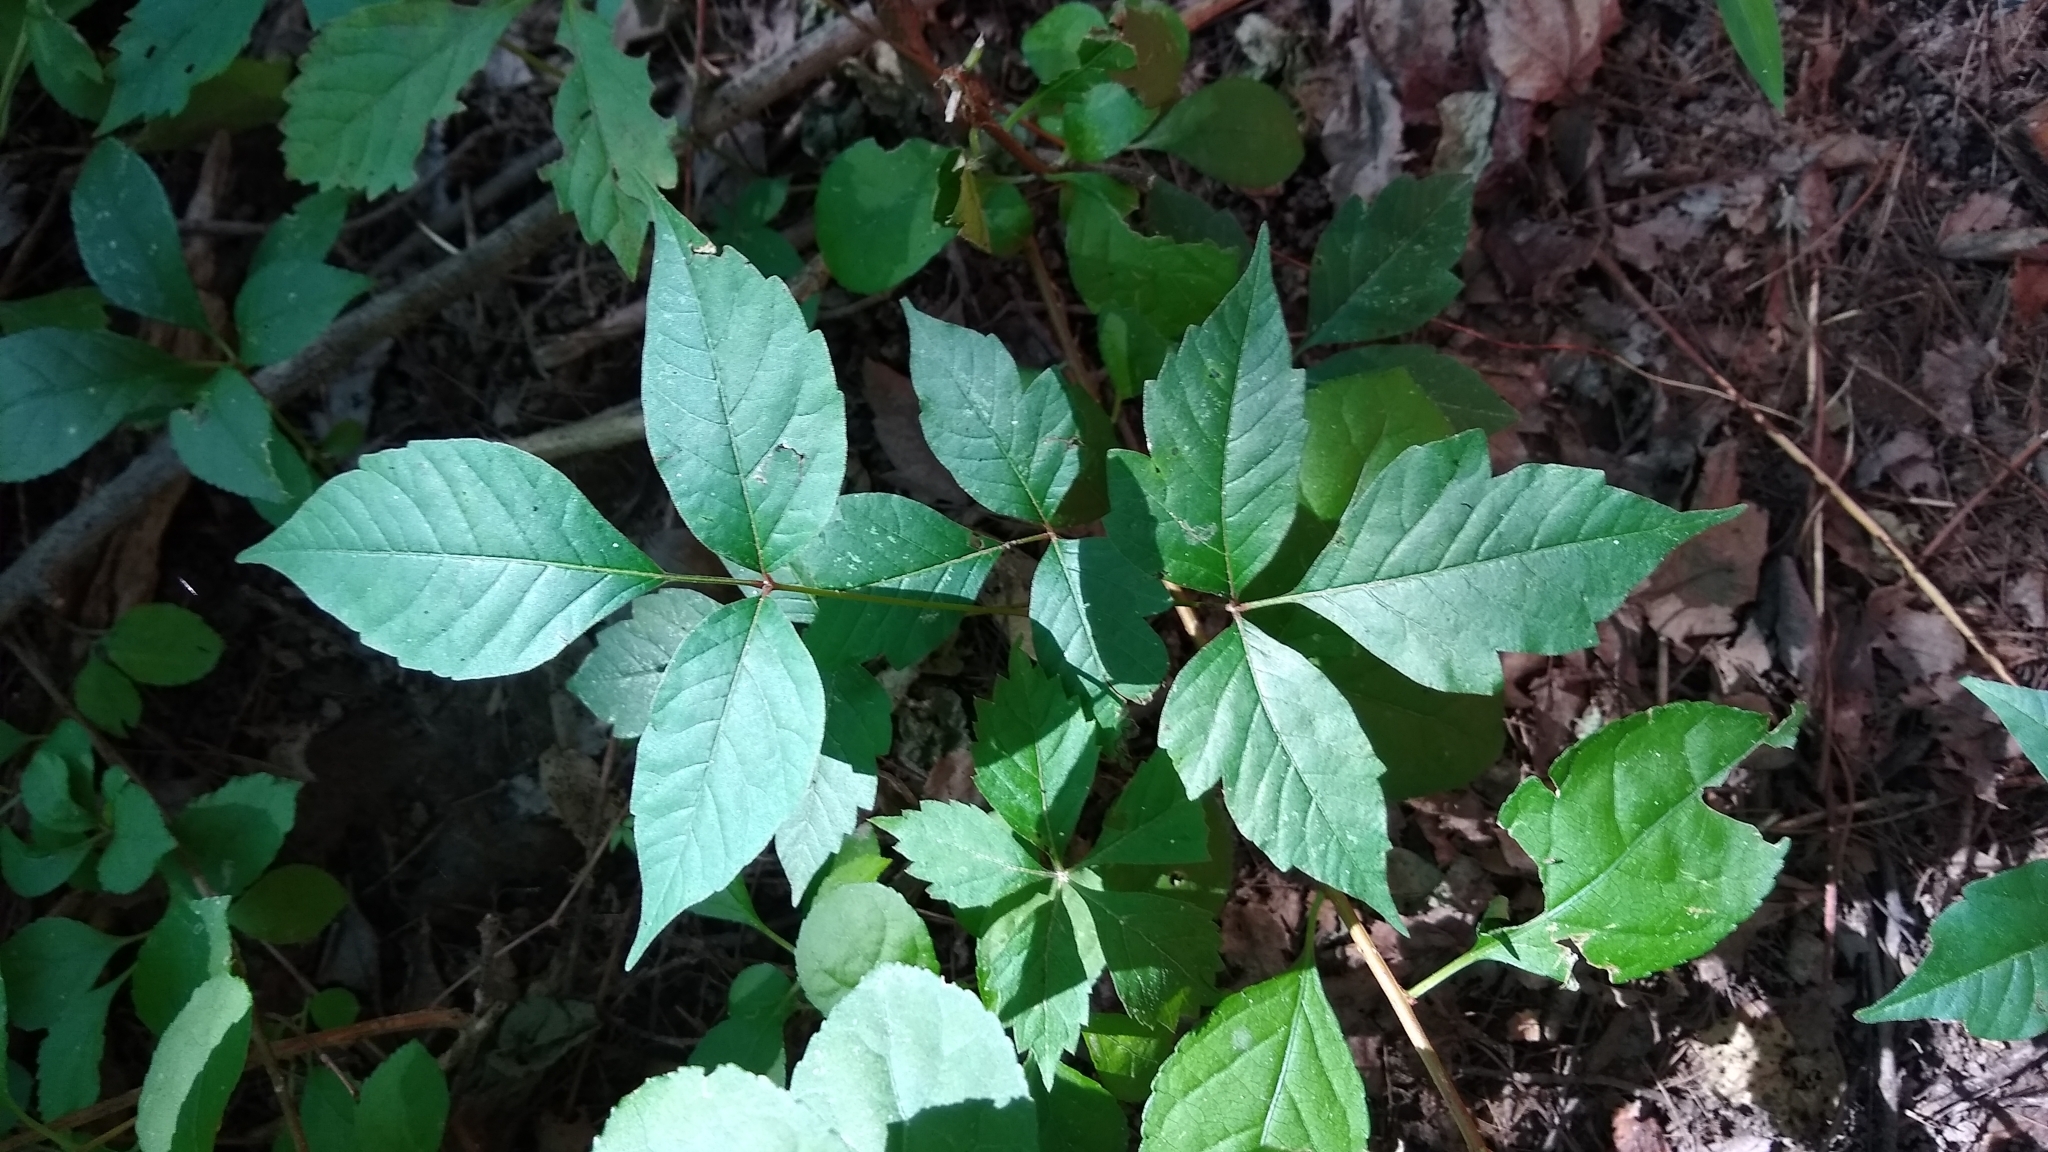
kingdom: Plantae
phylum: Tracheophyta
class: Magnoliopsida
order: Sapindales
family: Anacardiaceae
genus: Toxicodendron
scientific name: Toxicodendron radicans
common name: Poison ivy
